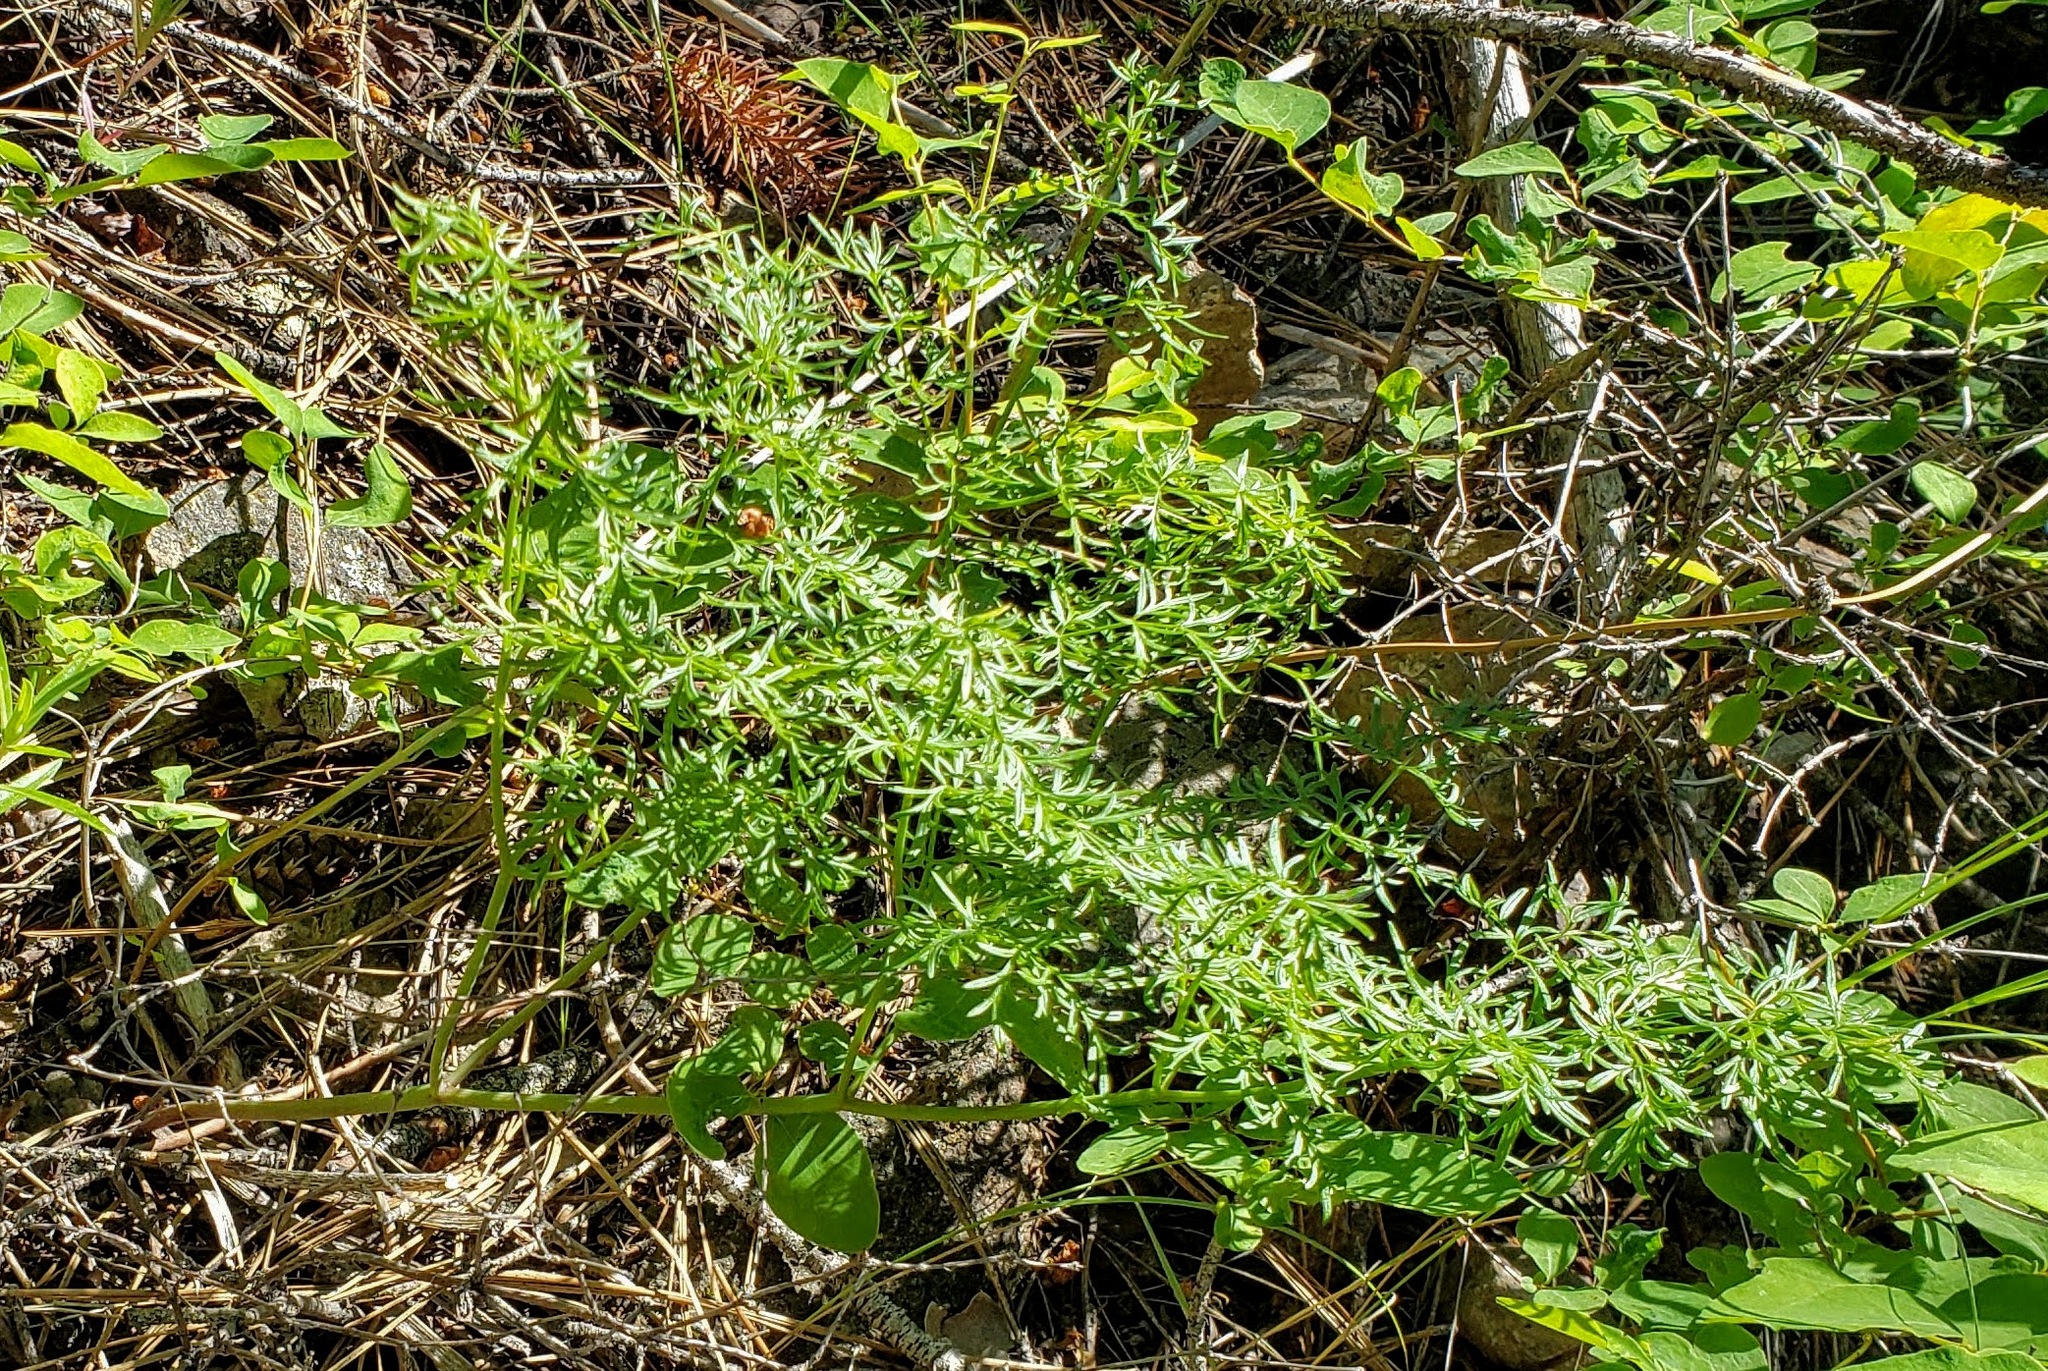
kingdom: Plantae
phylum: Tracheophyta
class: Magnoliopsida
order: Apiales
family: Apiaceae
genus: Lomatium
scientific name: Lomatium multifidum
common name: Carrot-leaved biscuitroot
